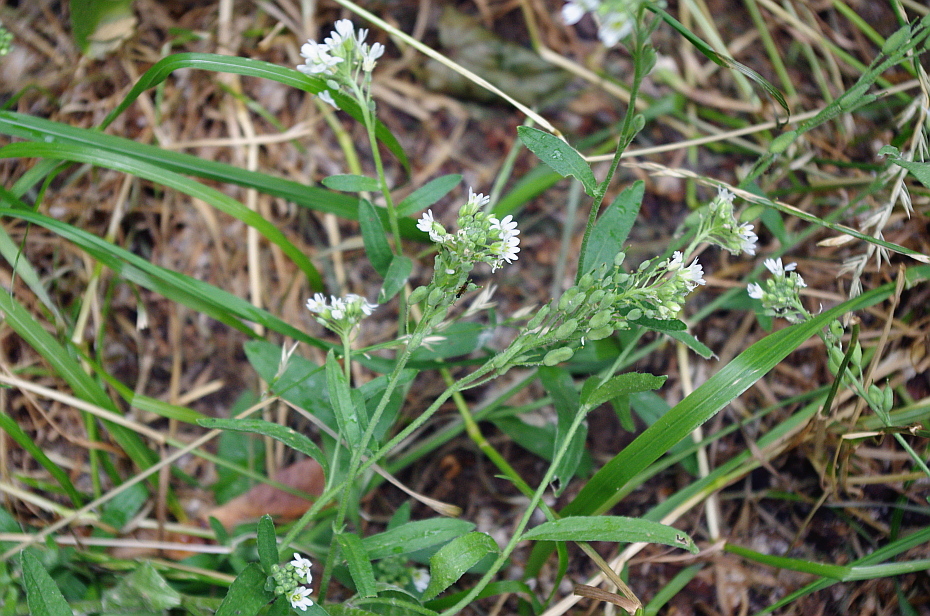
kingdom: Plantae
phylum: Tracheophyta
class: Magnoliopsida
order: Brassicales
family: Brassicaceae
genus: Berteroa
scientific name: Berteroa incana
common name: Hoary alison
